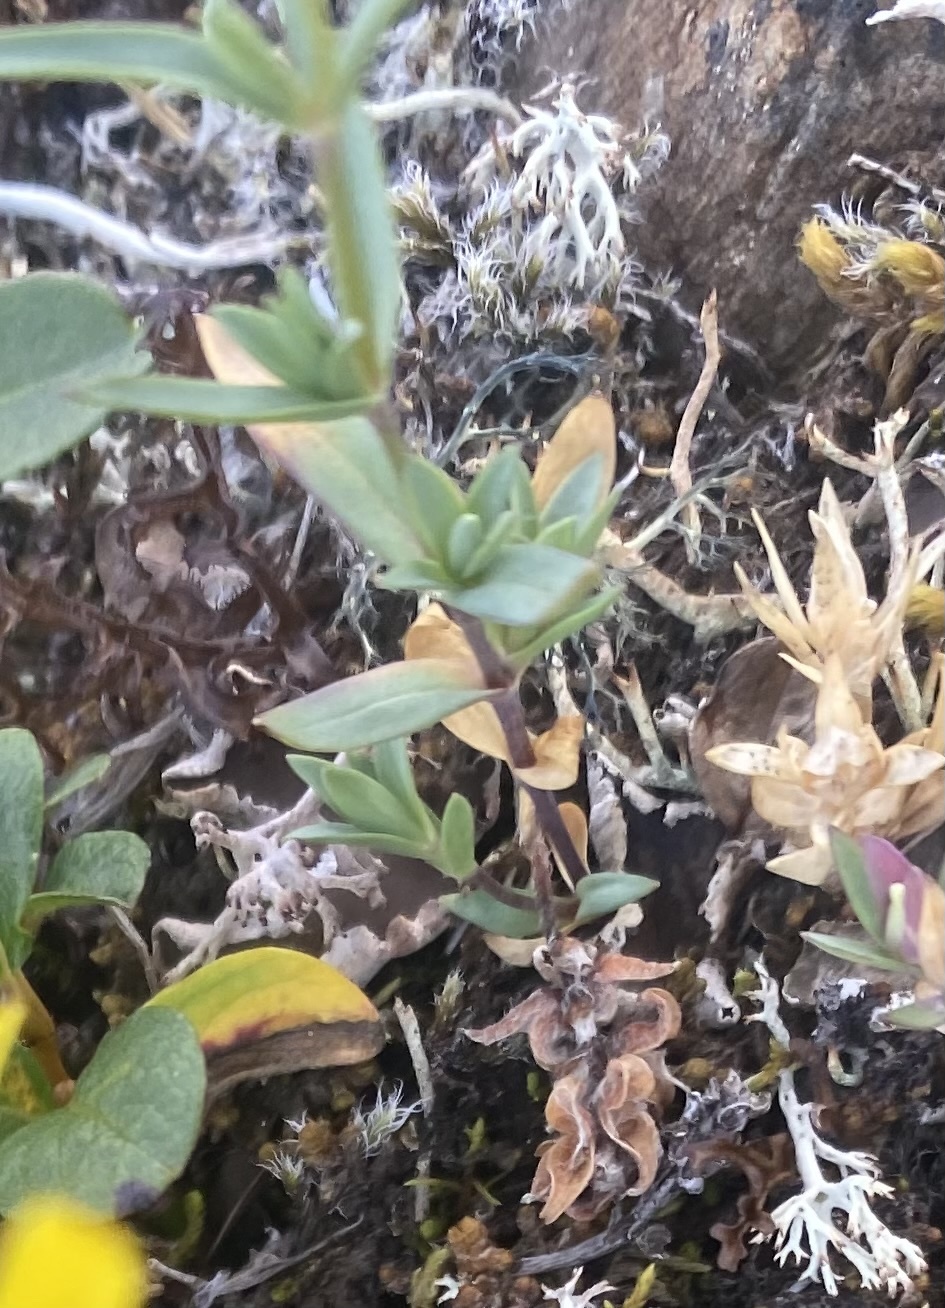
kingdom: Plantae
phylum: Tracheophyta
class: Magnoliopsida
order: Caryophyllales
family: Caryophyllaceae
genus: Stellaria
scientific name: Stellaria longipes
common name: Goldie's starwort
